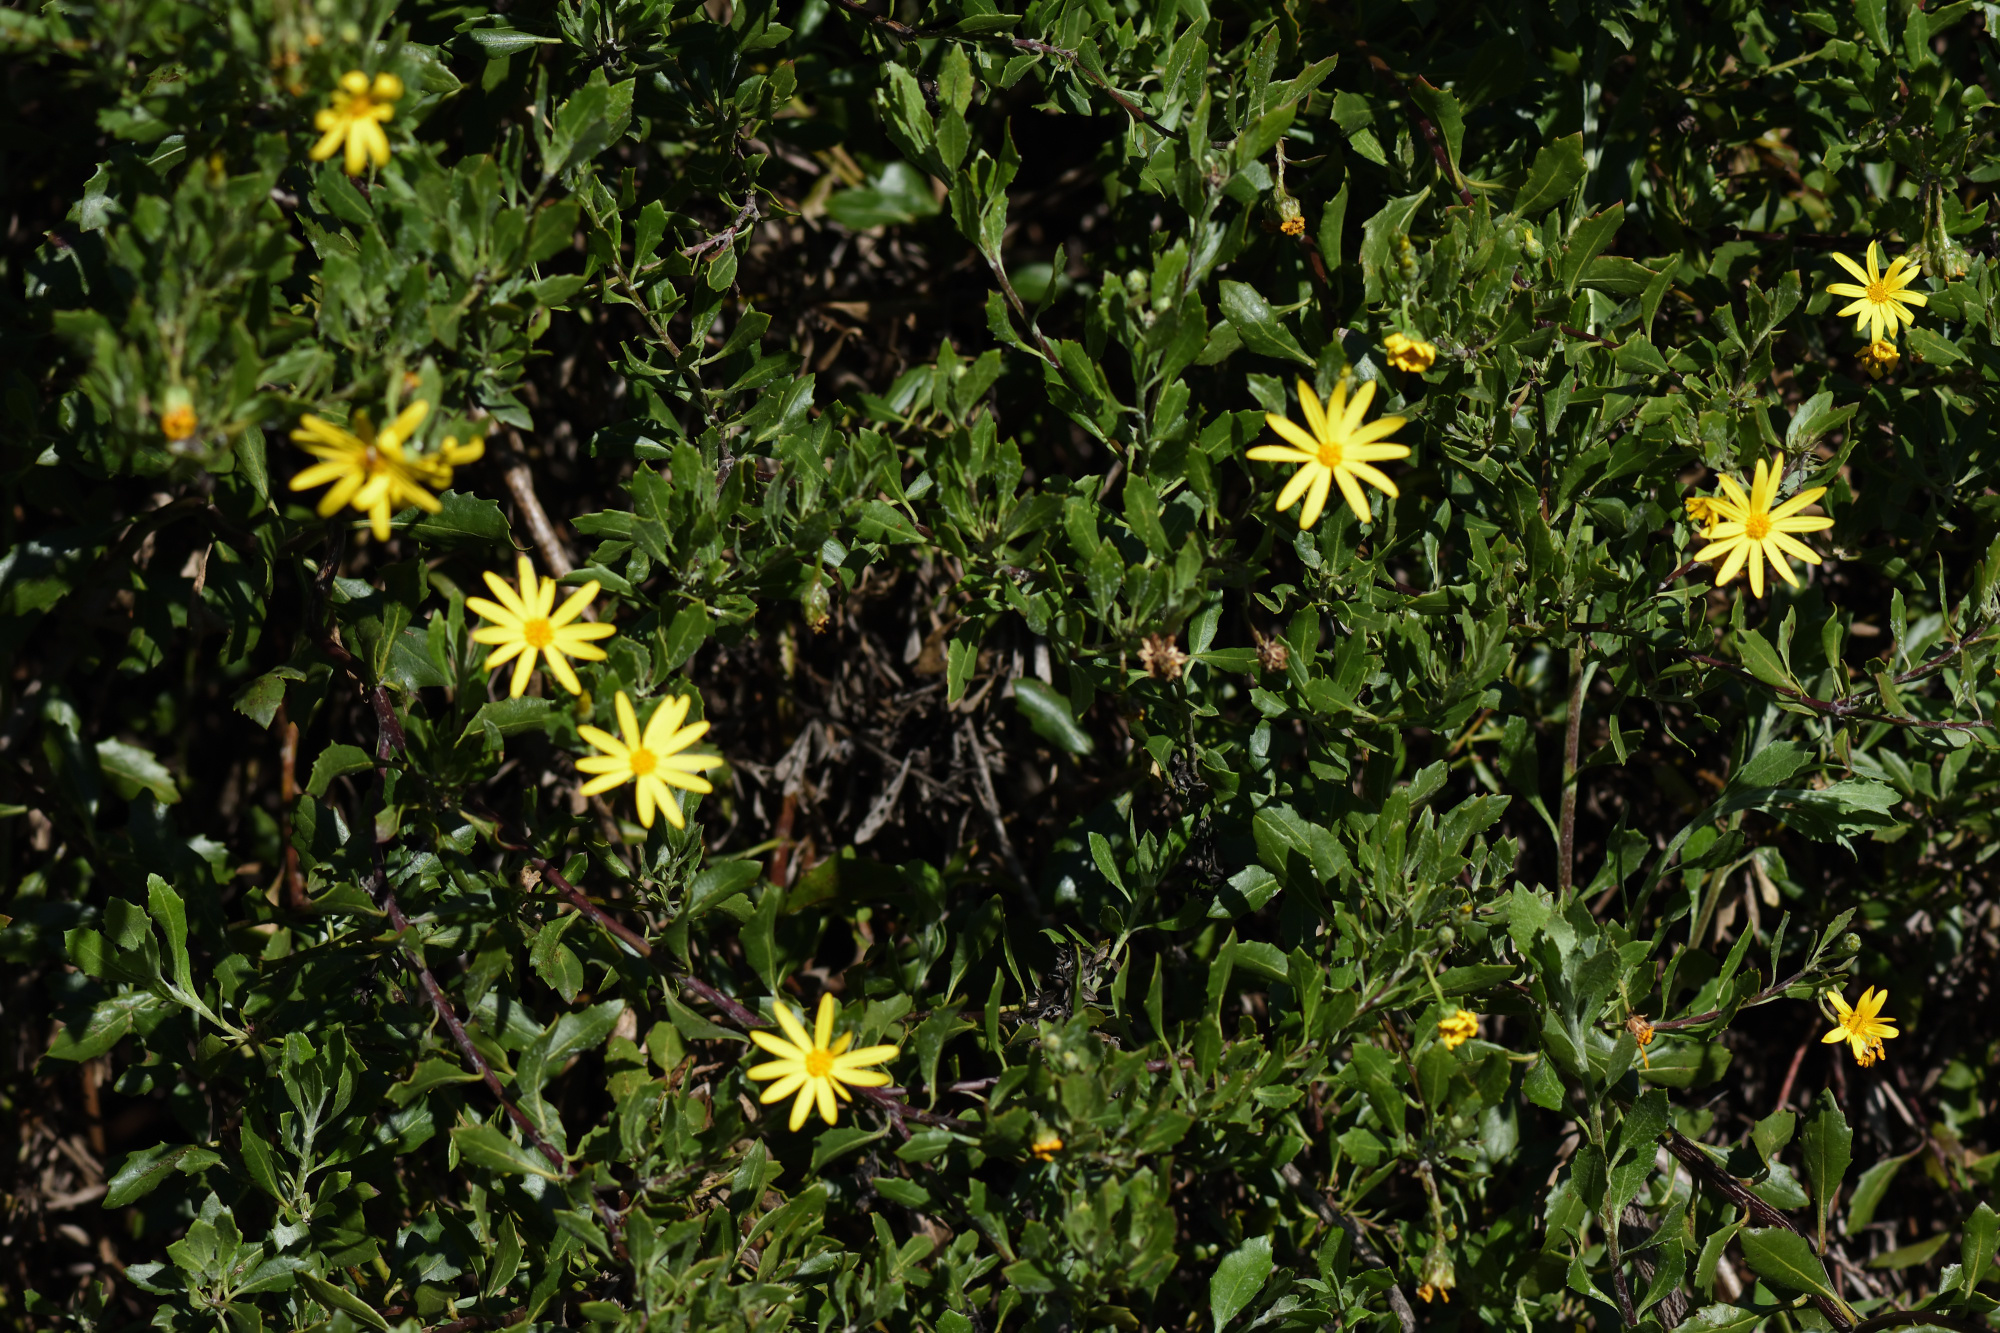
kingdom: Plantae
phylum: Tracheophyta
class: Magnoliopsida
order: Asterales
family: Asteraceae
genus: Osteospermum
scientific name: Osteospermum moniliferum
